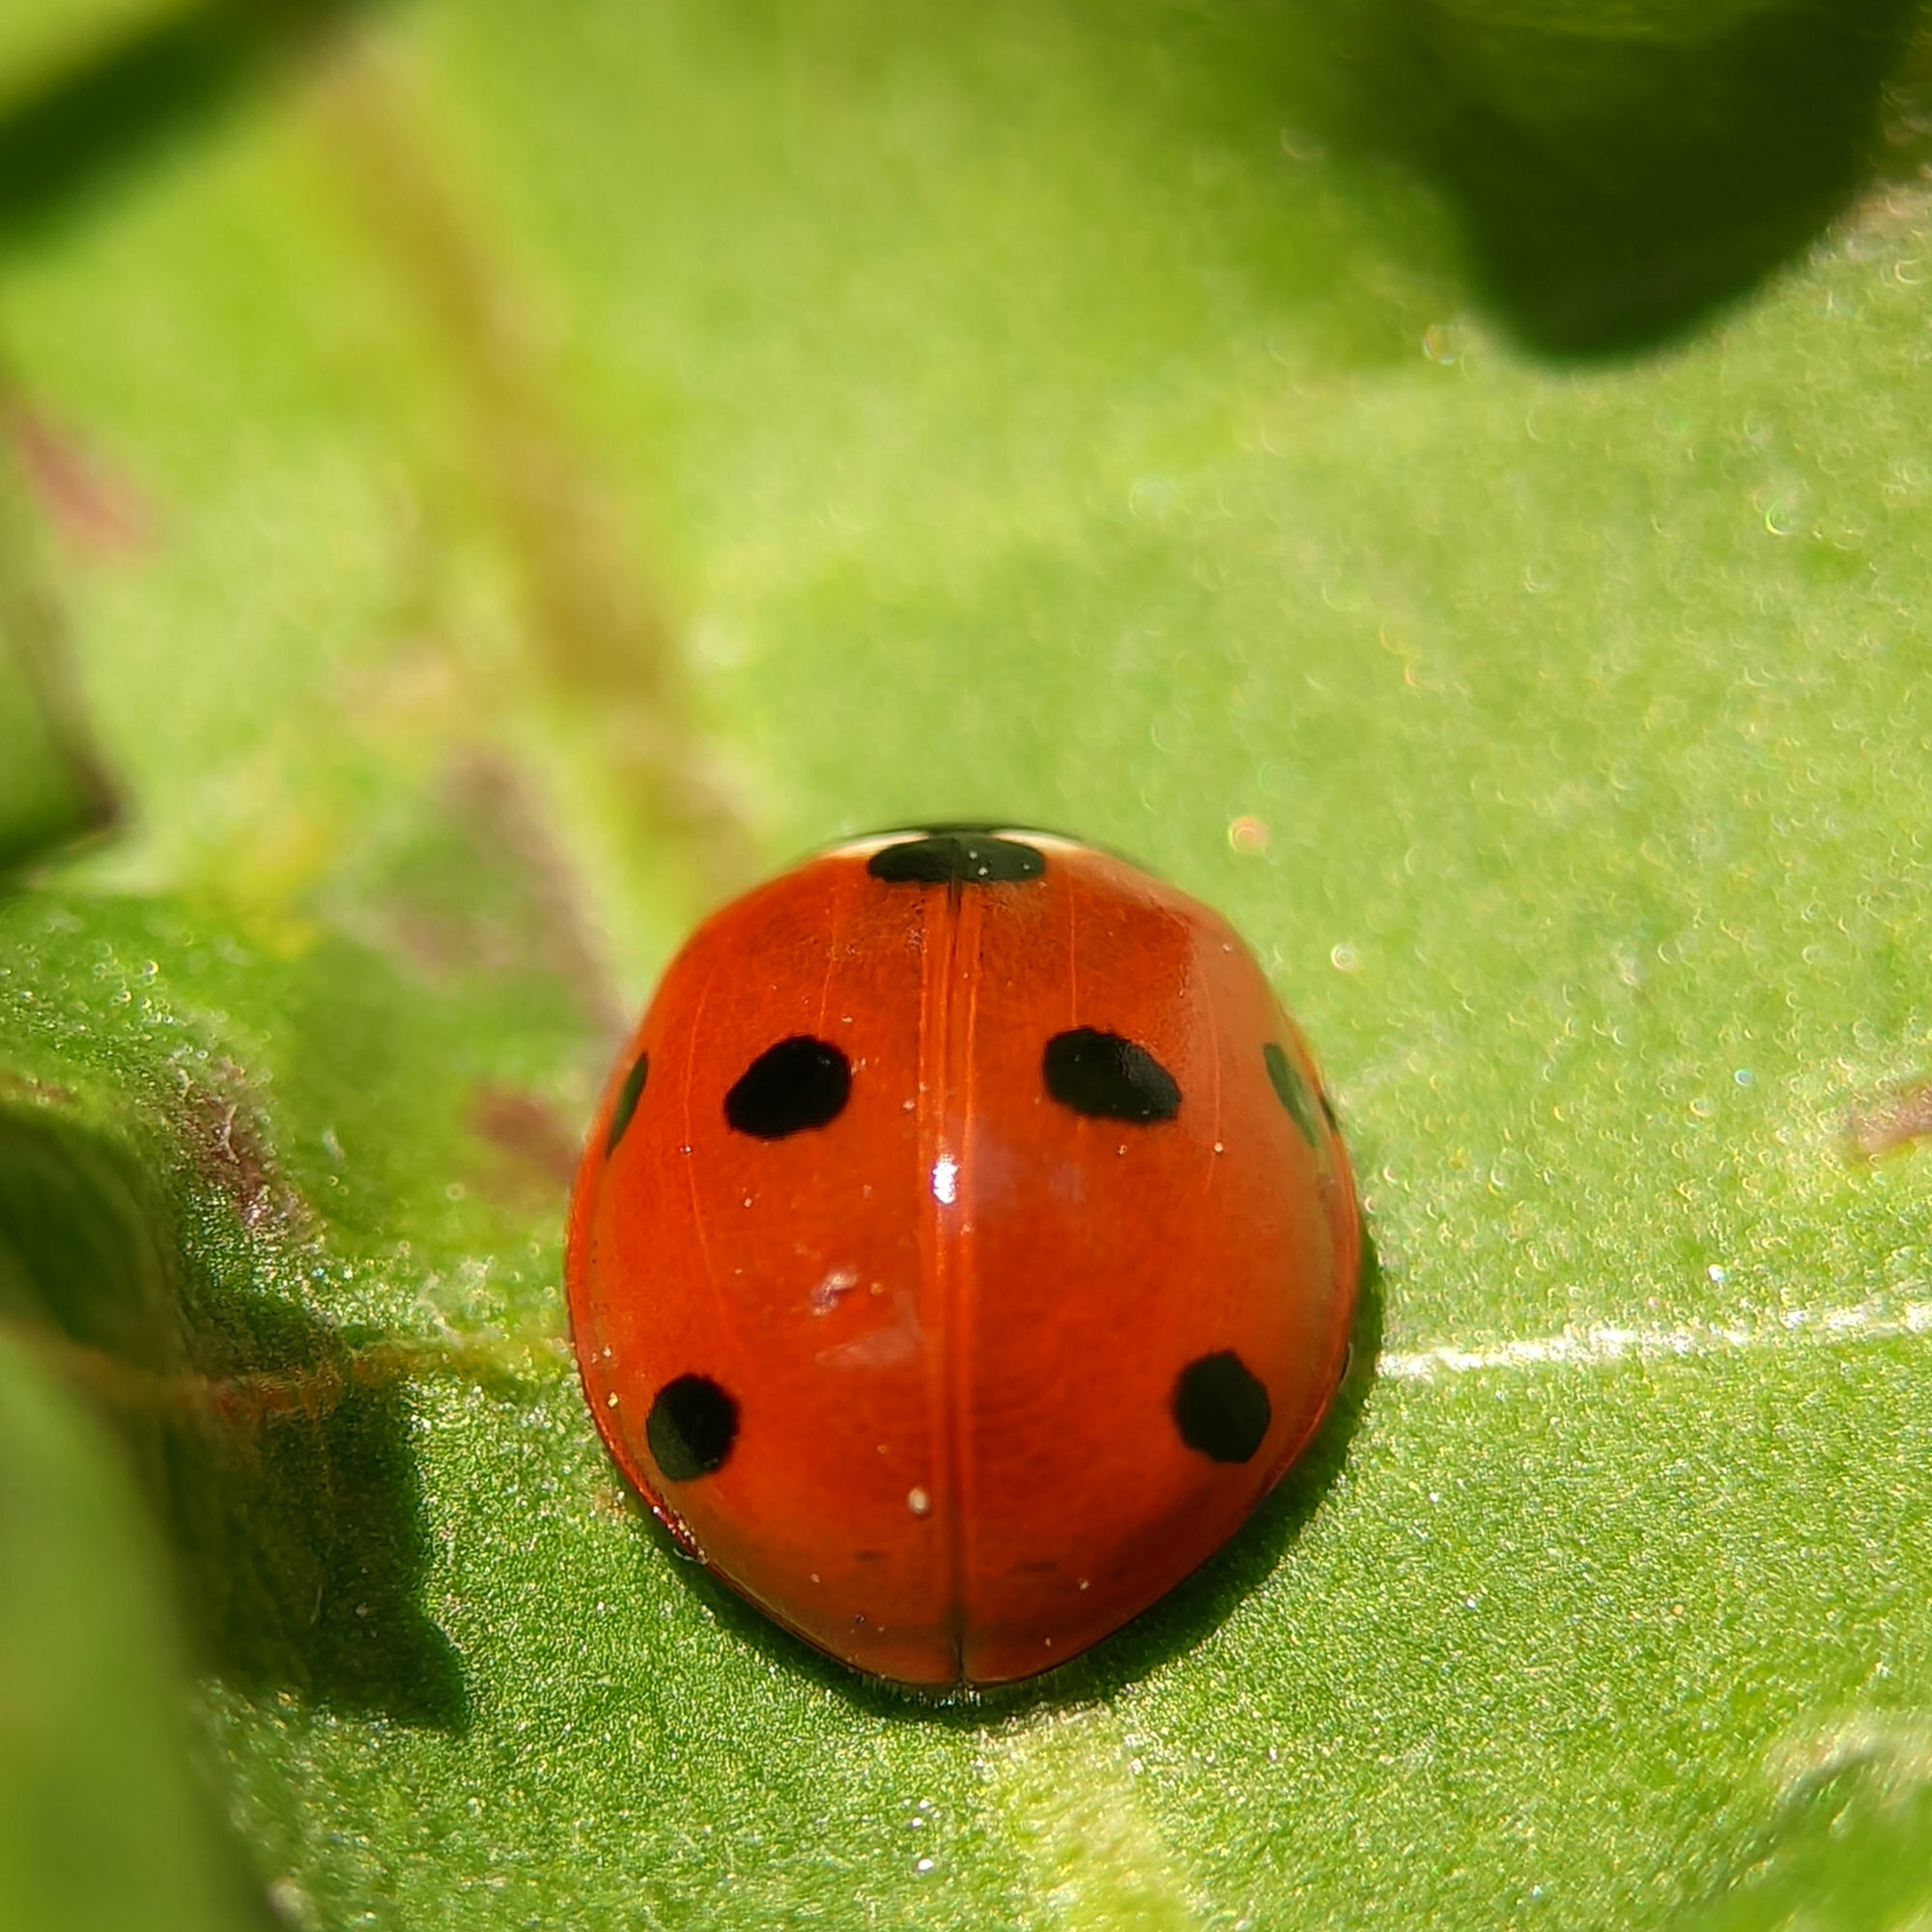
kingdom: Animalia
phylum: Arthropoda
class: Insecta
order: Coleoptera
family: Coccinellidae
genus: Coccinella
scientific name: Coccinella septempunctata
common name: Sevenspotted lady beetle
